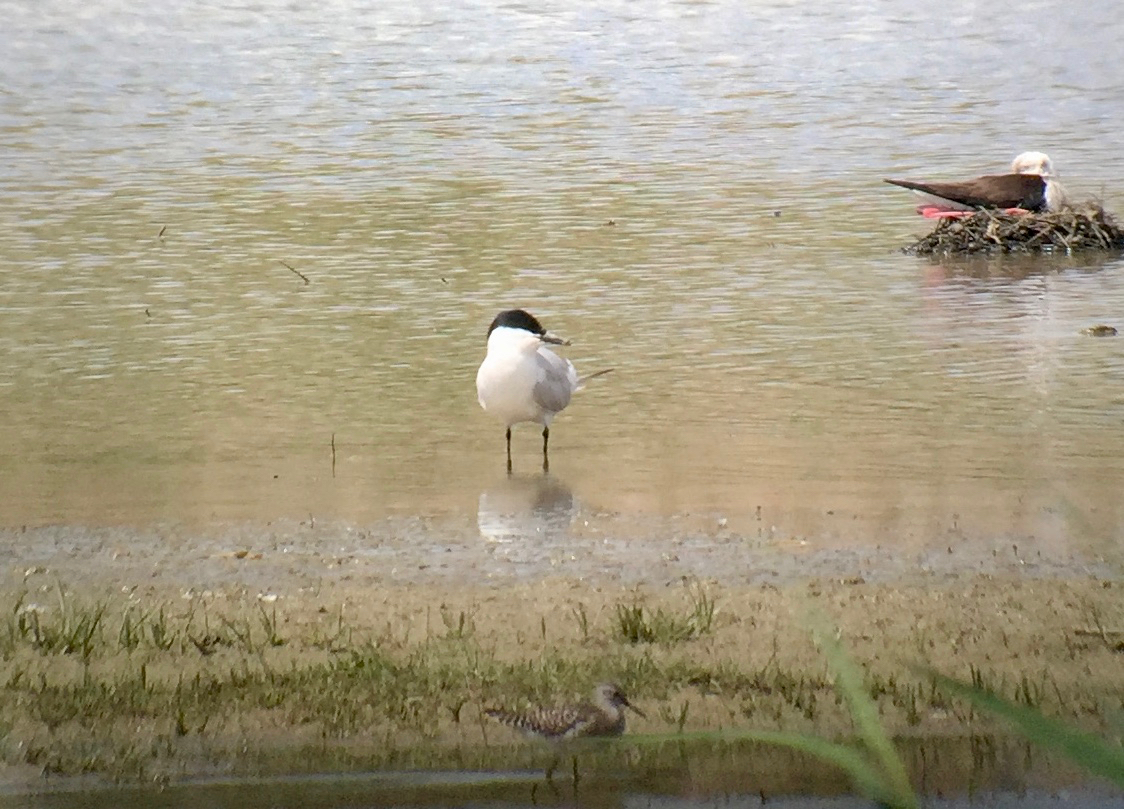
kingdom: Animalia
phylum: Chordata
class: Aves
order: Charadriiformes
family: Laridae
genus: Gelochelidon
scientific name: Gelochelidon nilotica
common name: Gull-billed tern
